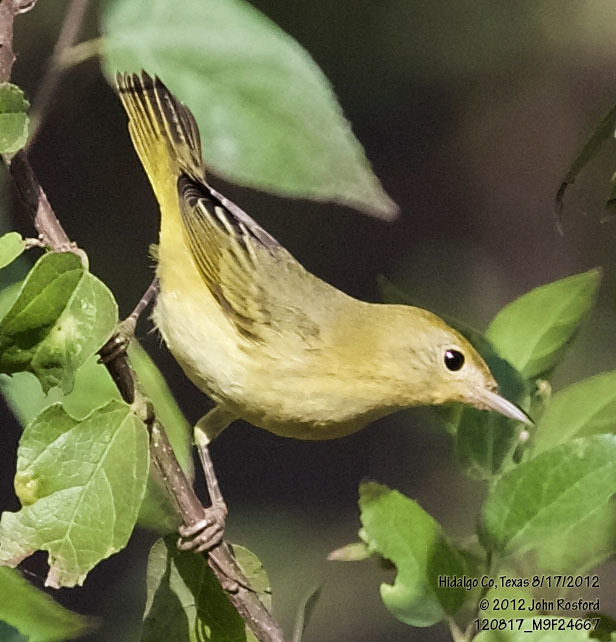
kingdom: Animalia
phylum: Chordata
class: Aves
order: Passeriformes
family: Parulidae
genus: Setophaga
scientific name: Setophaga petechia
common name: Yellow warbler
